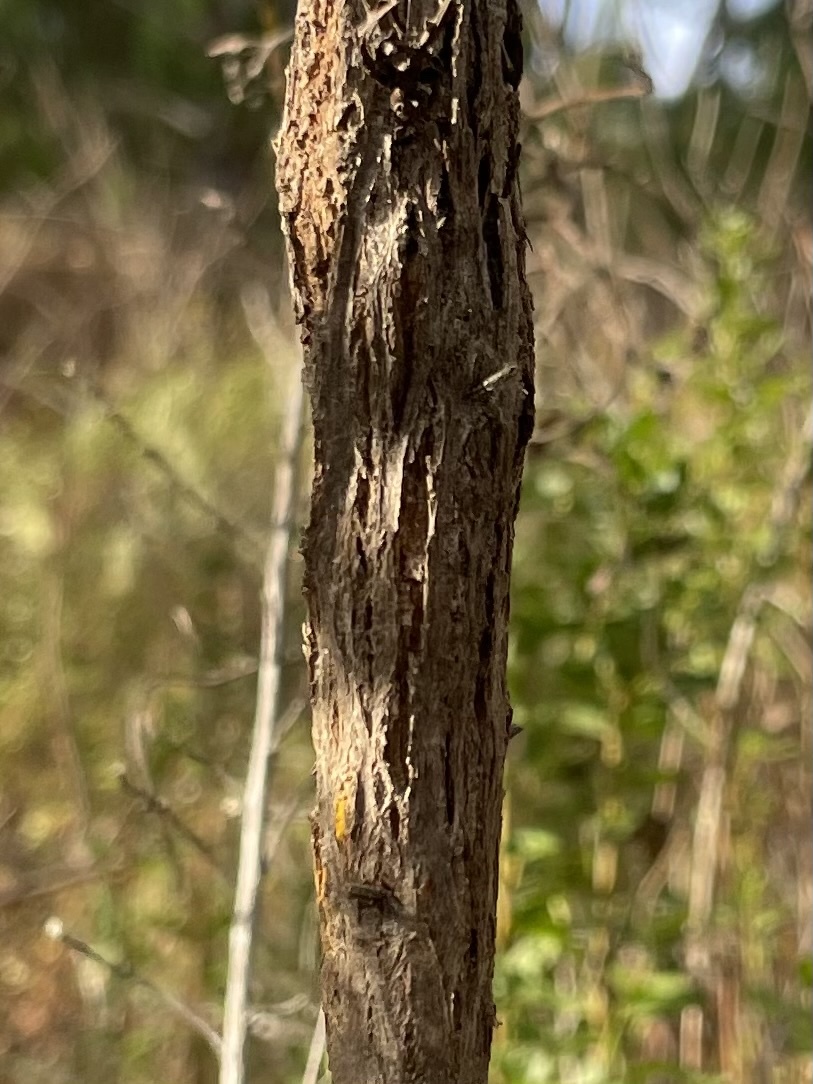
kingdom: Fungi
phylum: Basidiomycota
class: Pucciniomycetes
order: Pucciniales
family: Pucciniaceae
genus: Eriosporangium
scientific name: Eriosporangium evadens
